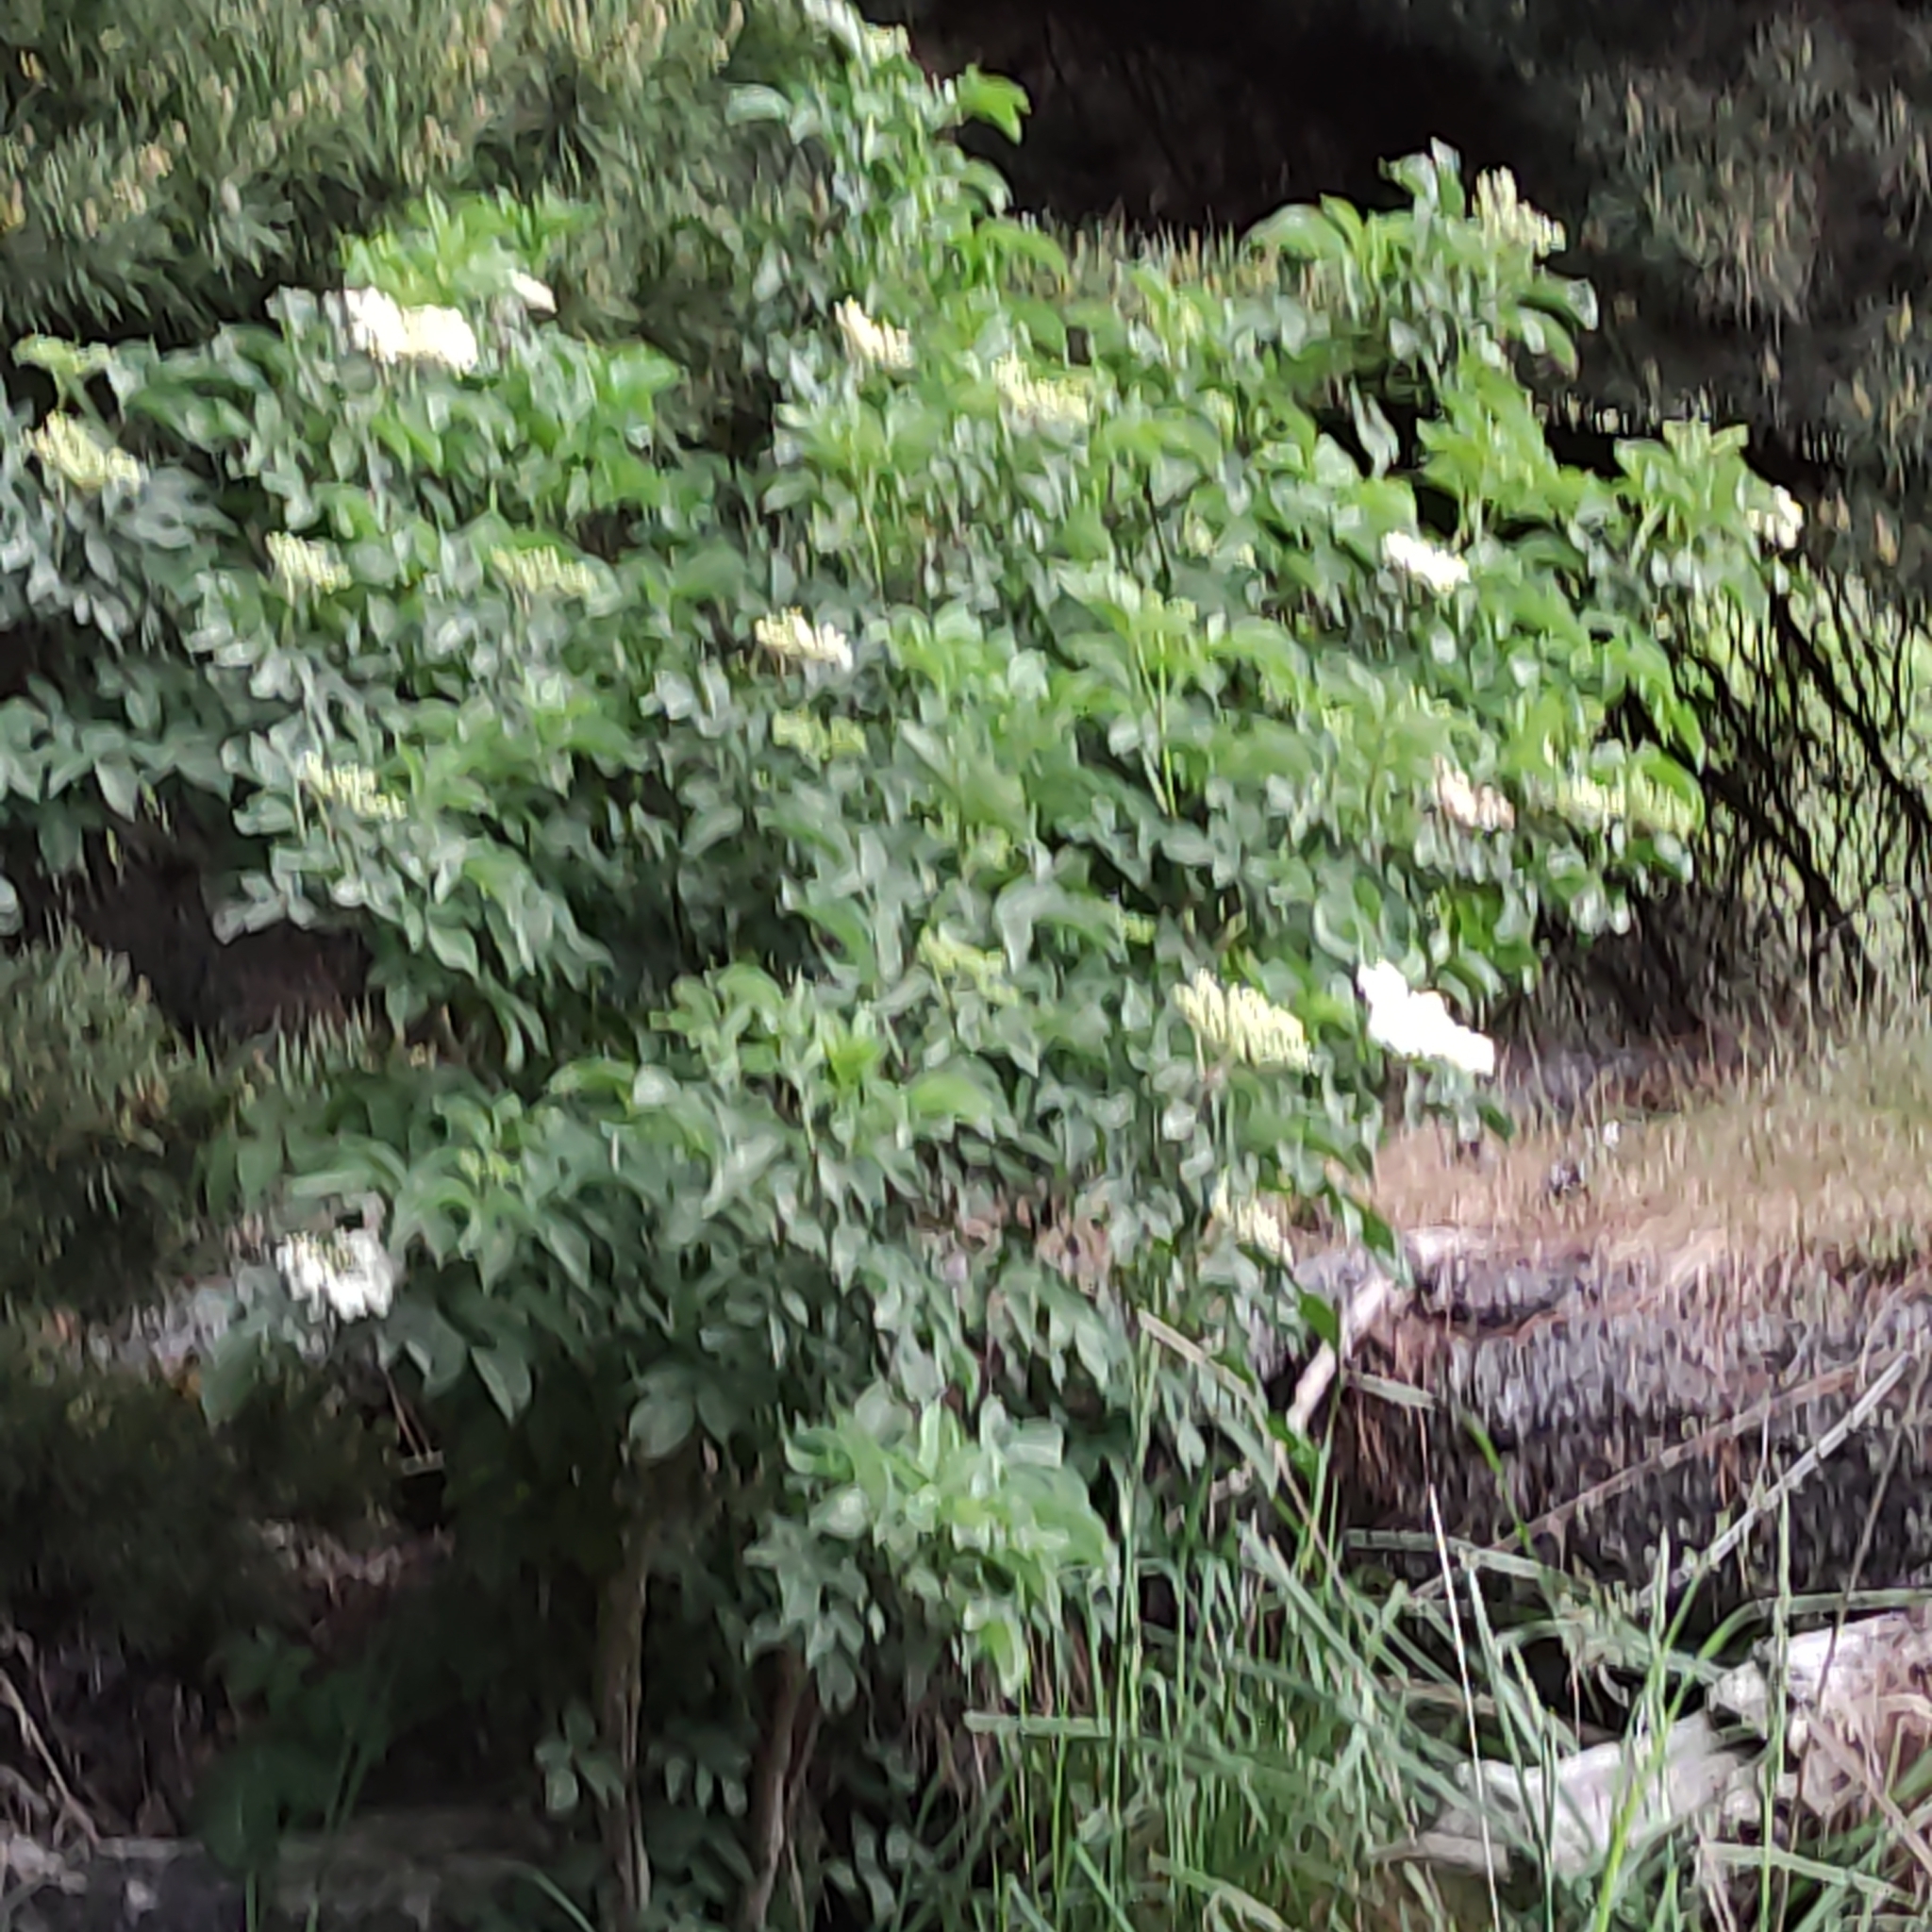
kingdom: Plantae
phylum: Tracheophyta
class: Magnoliopsida
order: Dipsacales
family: Viburnaceae
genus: Sambucus
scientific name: Sambucus nigra
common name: Elder
